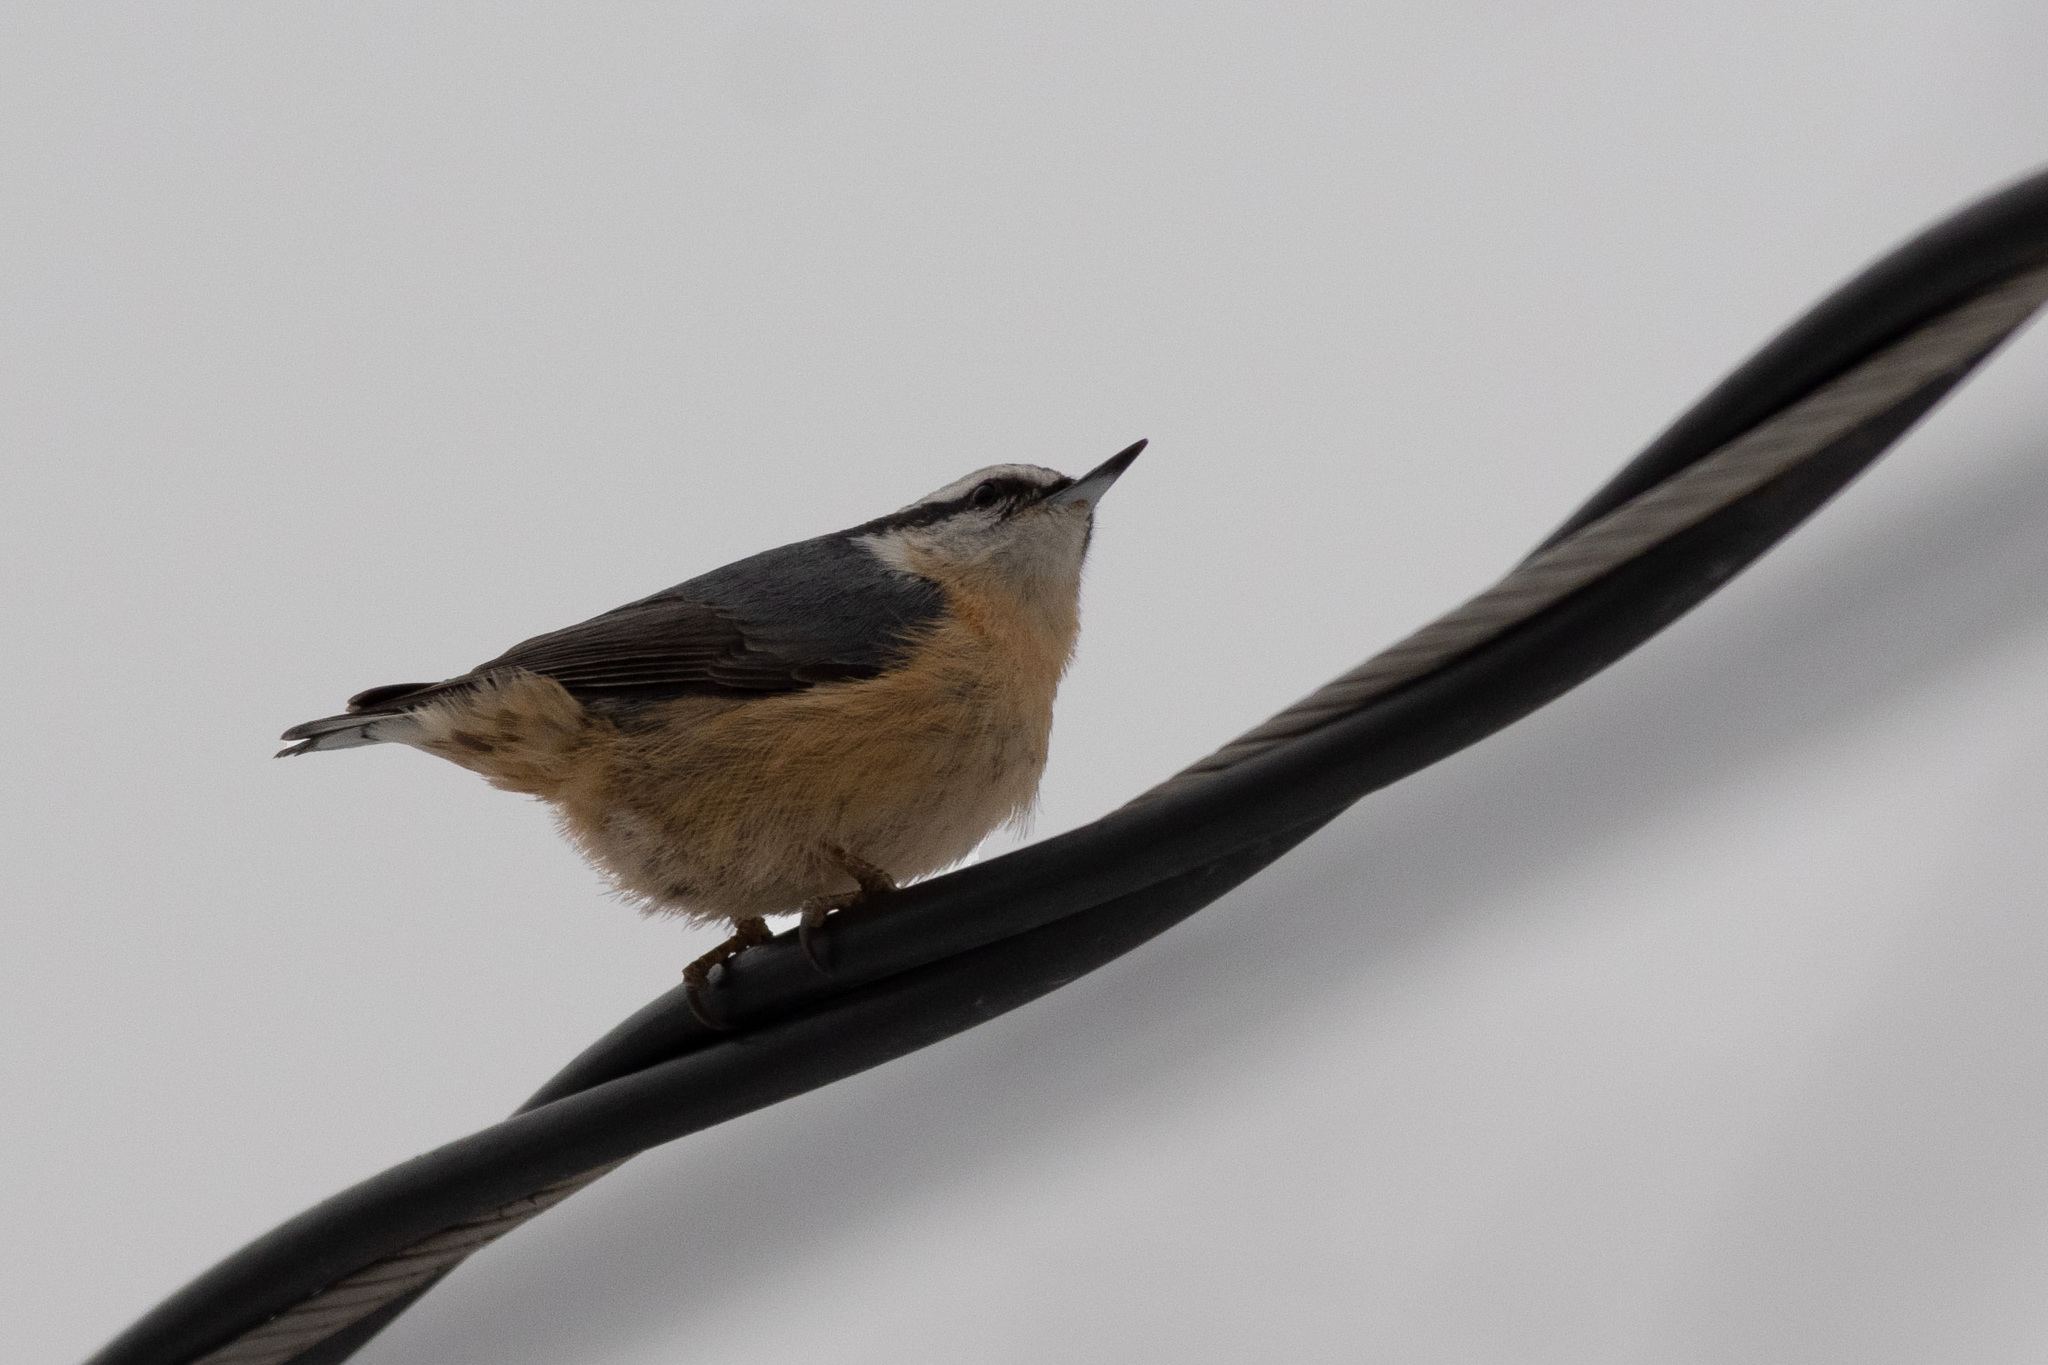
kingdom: Animalia
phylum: Chordata
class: Aves
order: Passeriformes
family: Sittidae
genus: Sitta
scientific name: Sitta canadensis
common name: Red-breasted nuthatch
